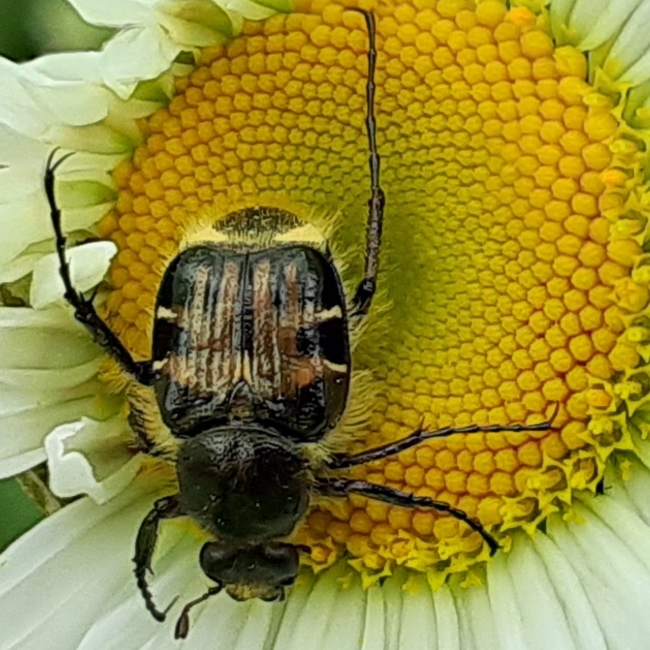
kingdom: Animalia
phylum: Arthropoda
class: Insecta
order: Coleoptera
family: Scarabaeidae
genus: Trichiotinus
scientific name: Trichiotinus affinis
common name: Hairy flower scarab
